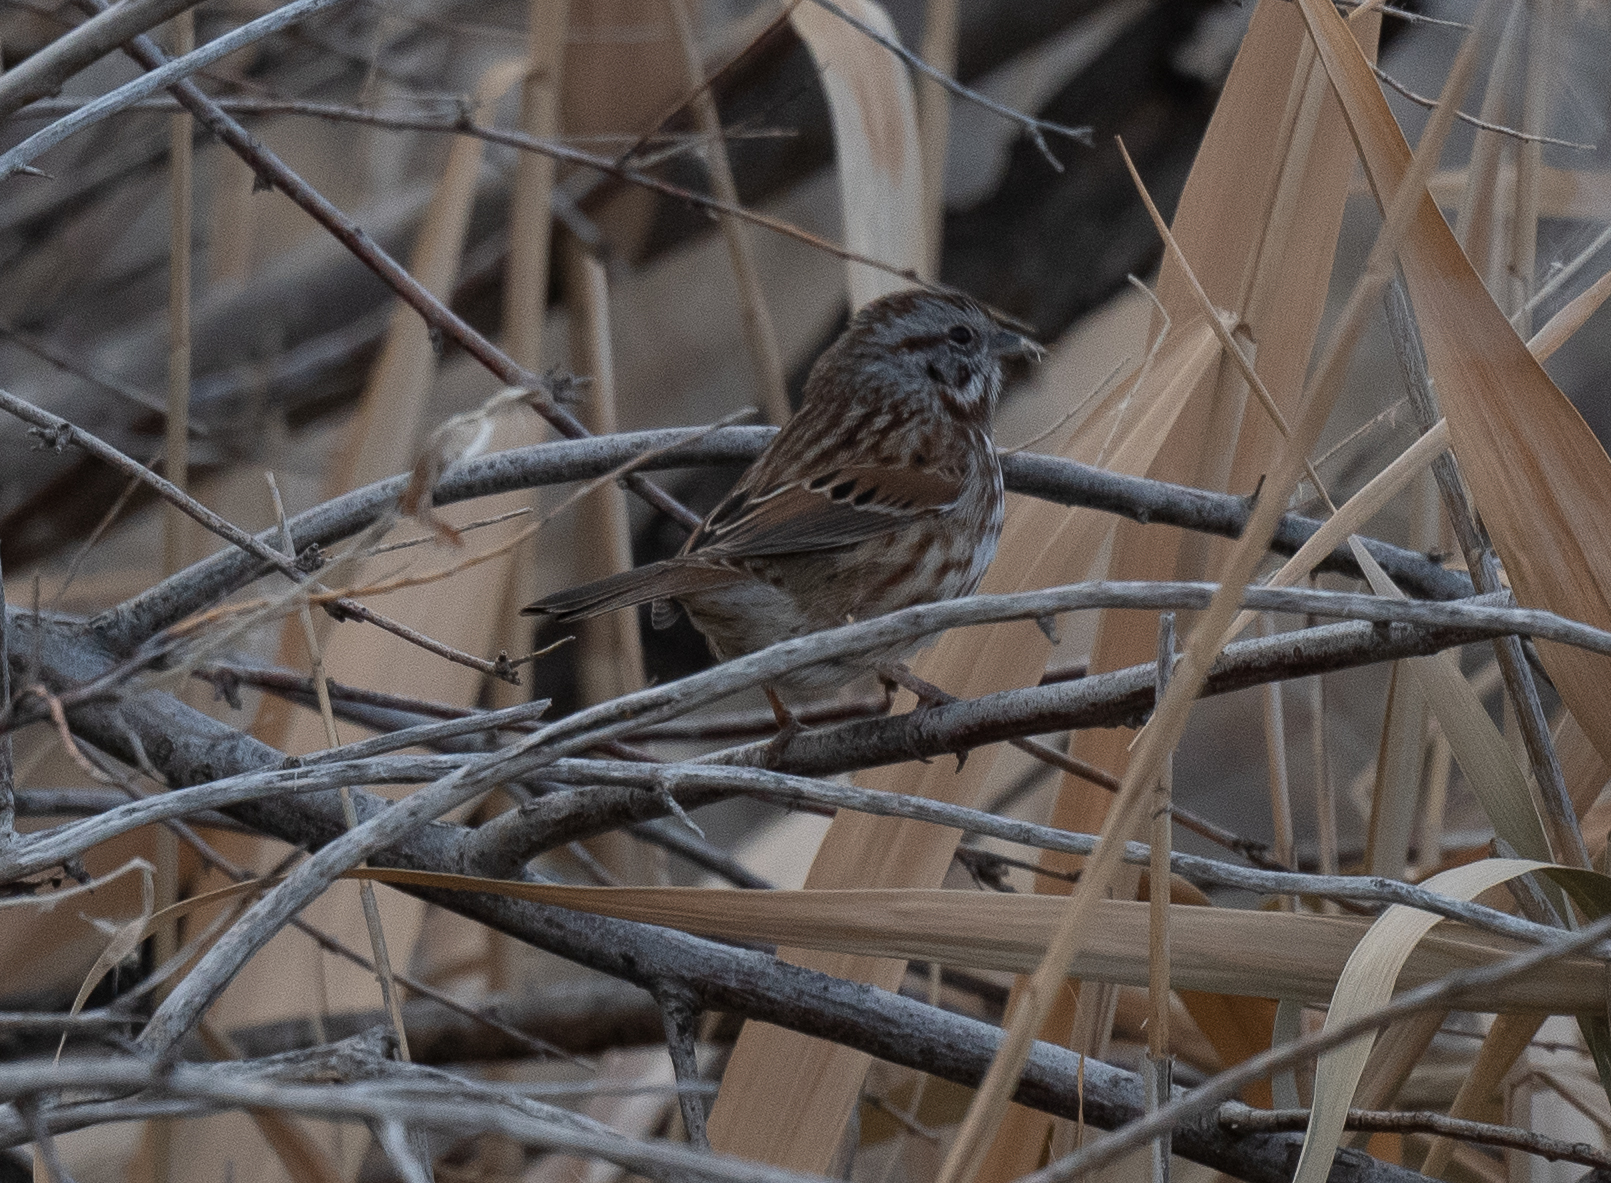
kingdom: Animalia
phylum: Chordata
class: Aves
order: Passeriformes
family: Passerellidae
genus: Melospiza
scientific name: Melospiza melodia
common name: Song sparrow
